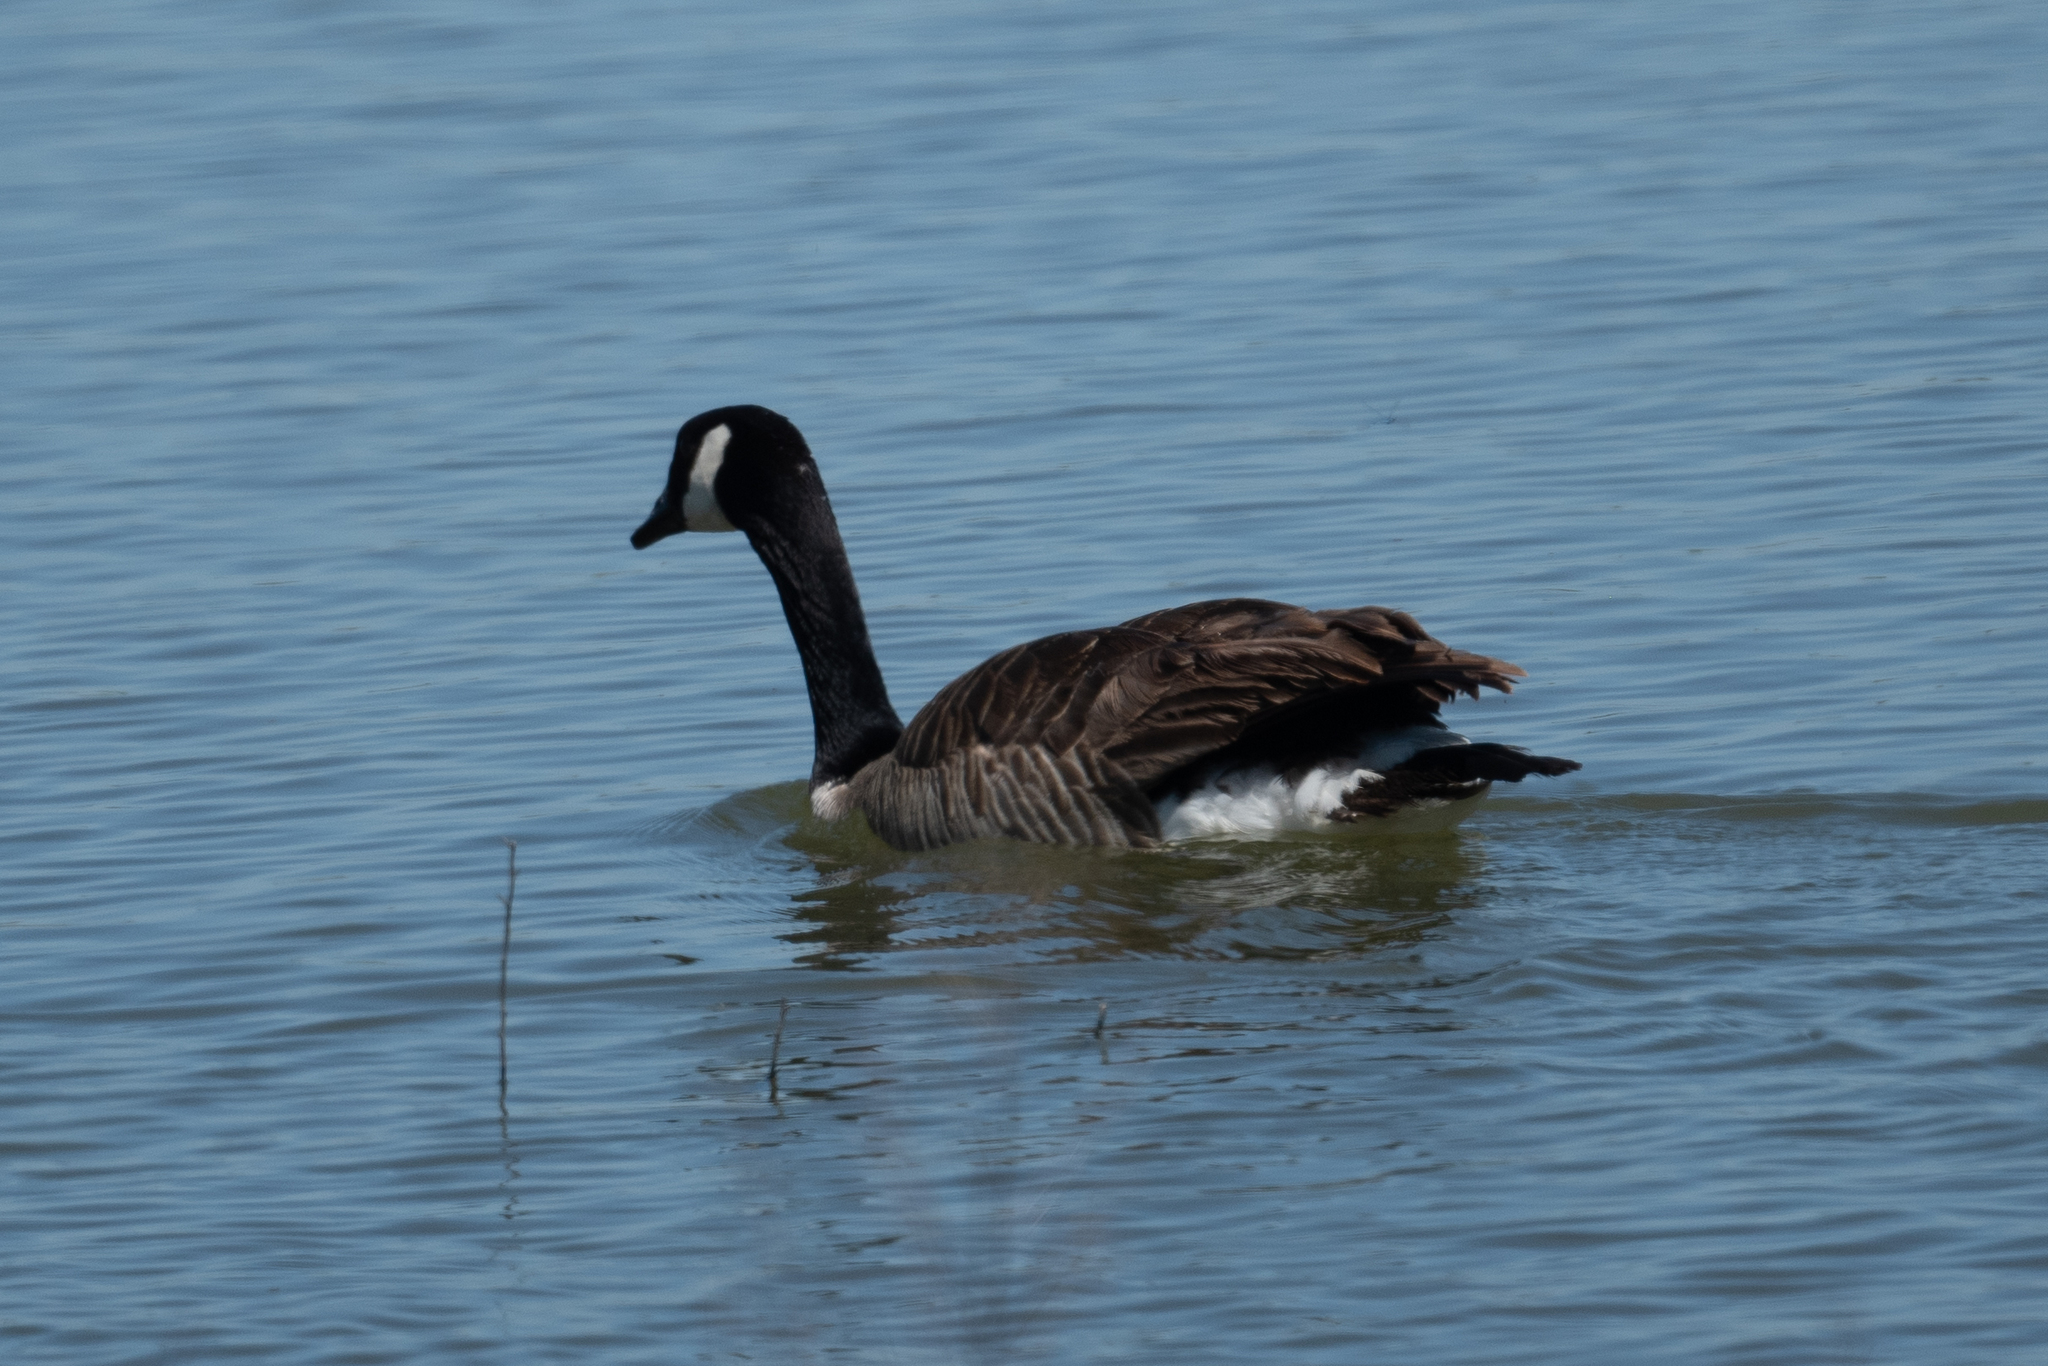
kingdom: Animalia
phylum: Chordata
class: Aves
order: Anseriformes
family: Anatidae
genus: Branta
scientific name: Branta canadensis
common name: Canada goose
